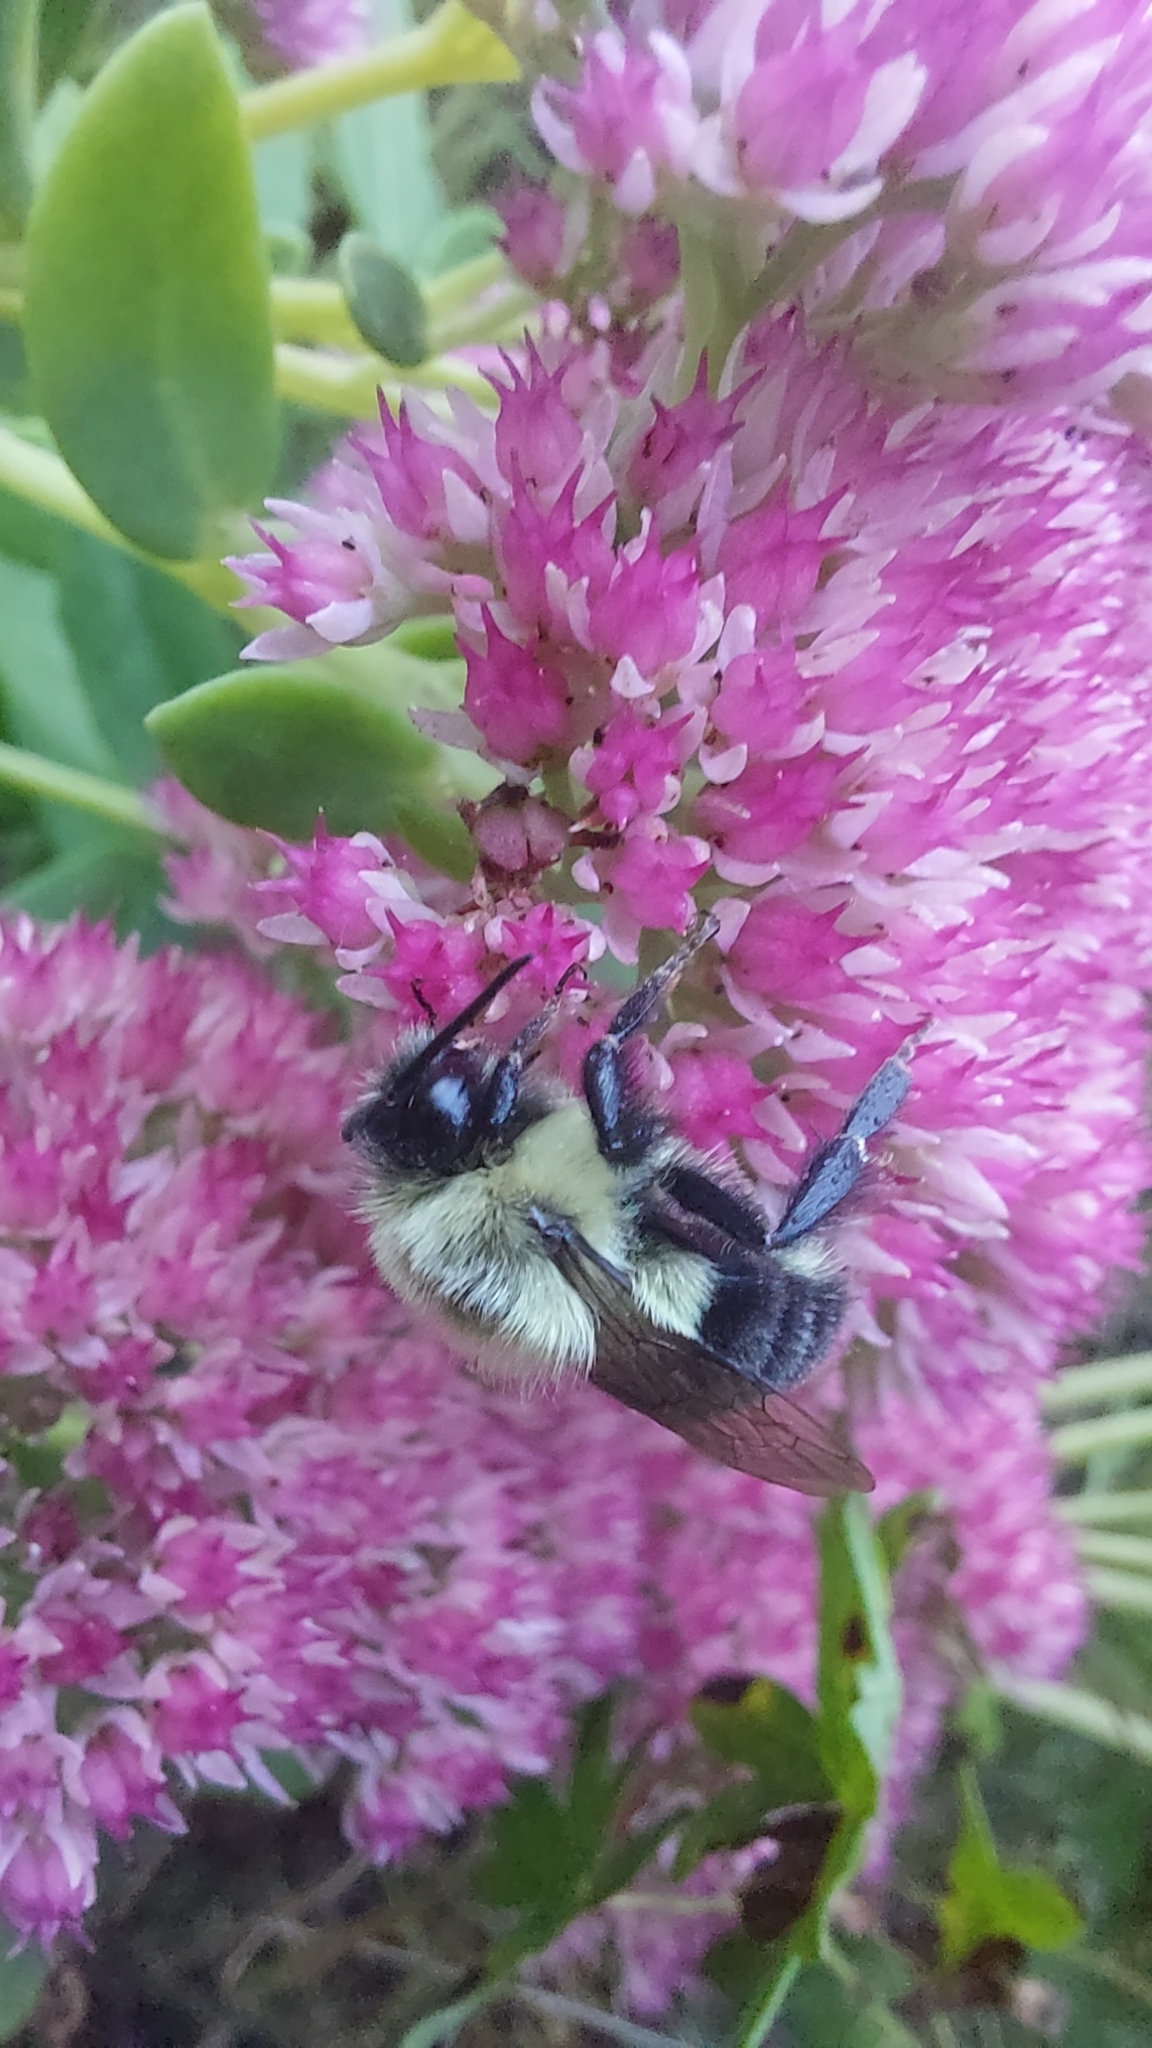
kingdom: Animalia
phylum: Arthropoda
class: Insecta
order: Hymenoptera
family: Apidae
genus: Bombus
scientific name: Bombus impatiens
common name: Common eastern bumble bee
